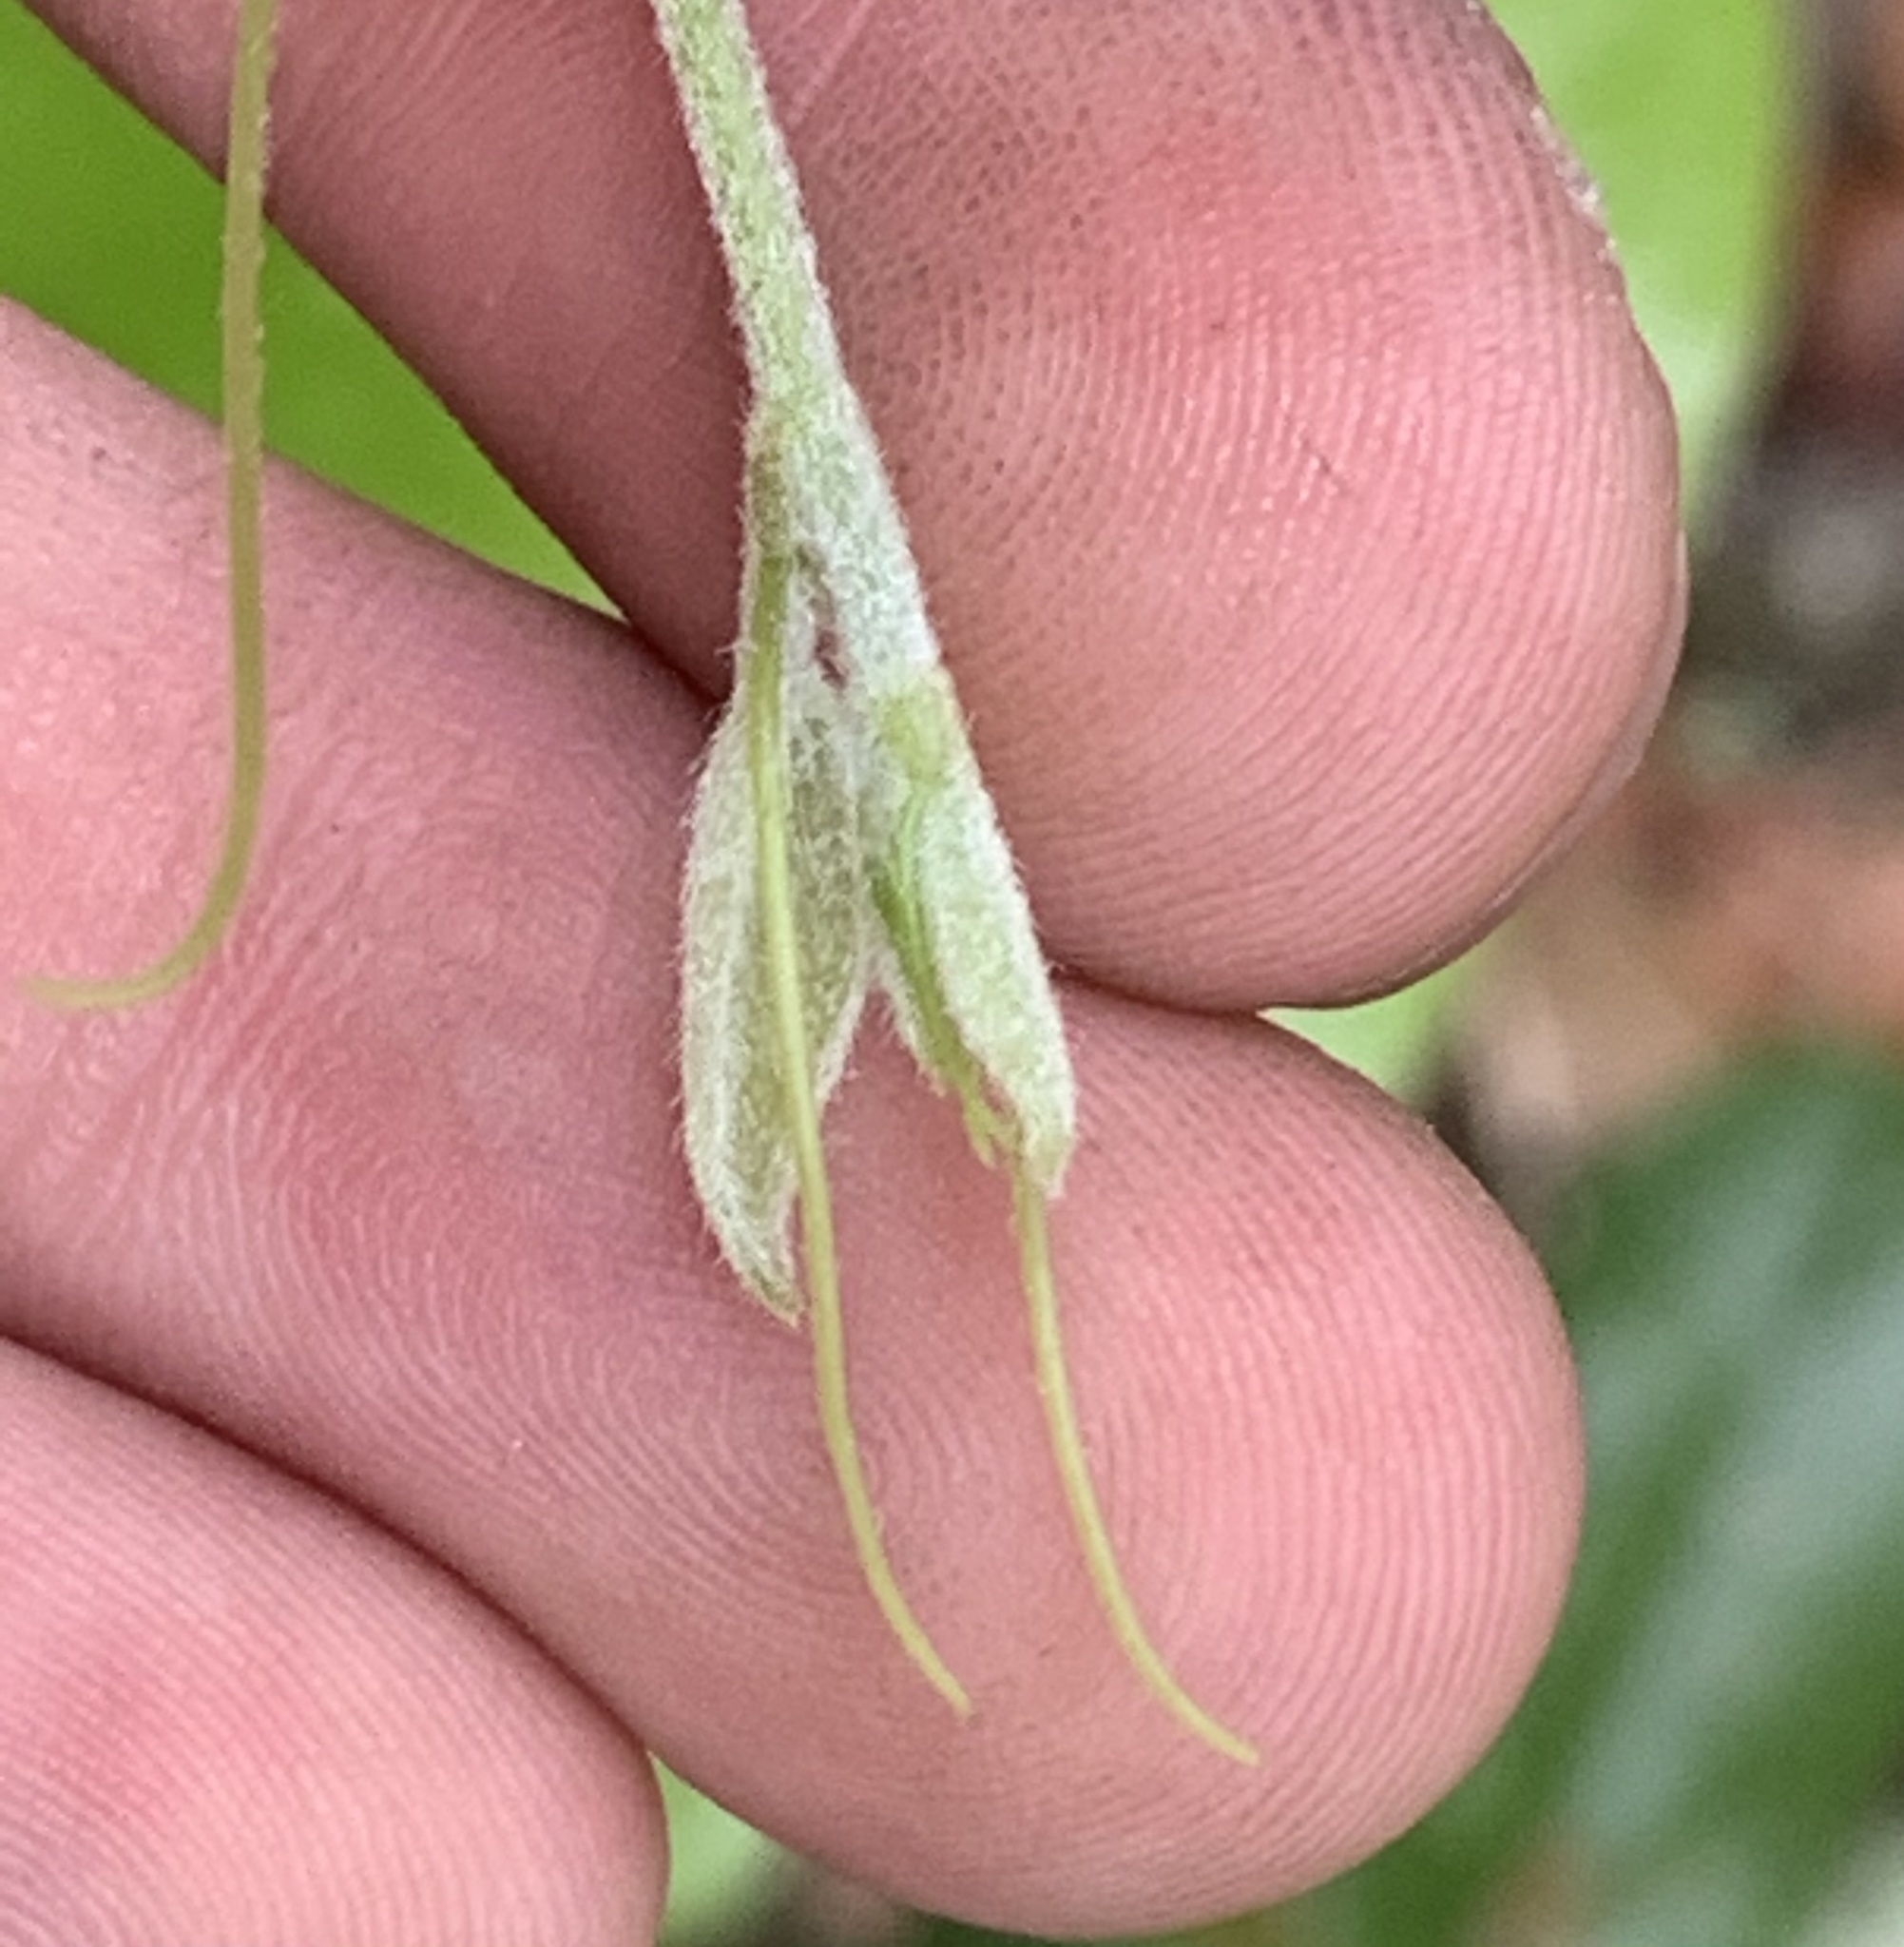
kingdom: Plantae
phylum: Tracheophyta
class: Liliopsida
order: Liliales
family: Smilacaceae
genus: Smilax
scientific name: Smilax pumila
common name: Sarsaparilla-vine
